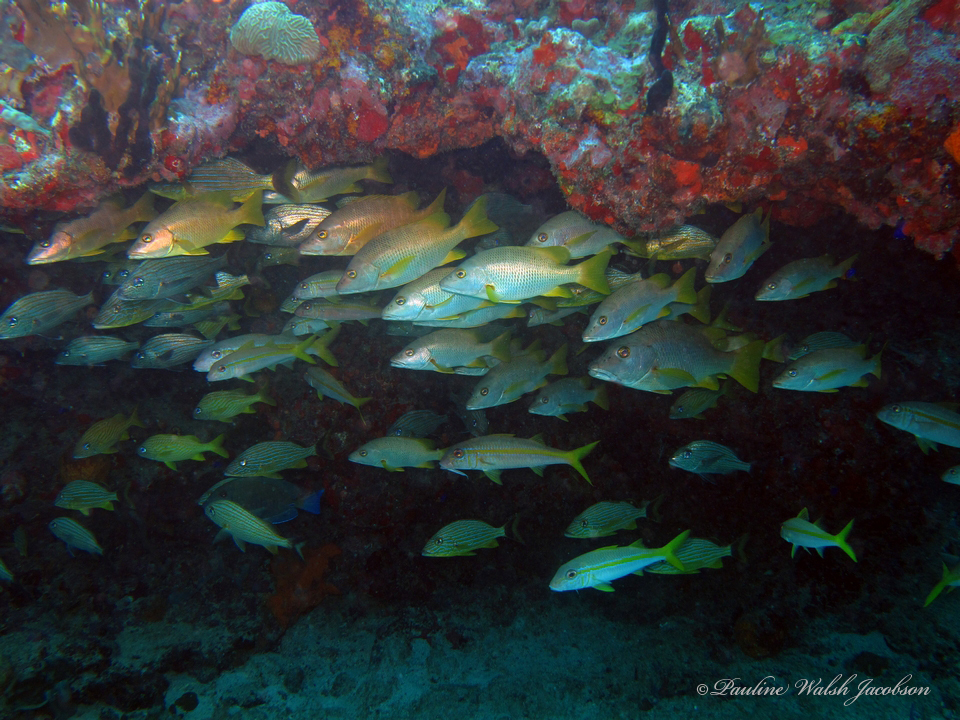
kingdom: Animalia
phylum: Chordata
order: Perciformes
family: Lutjanidae
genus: Lutjanus
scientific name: Lutjanus apodus
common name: Schoolmaster
